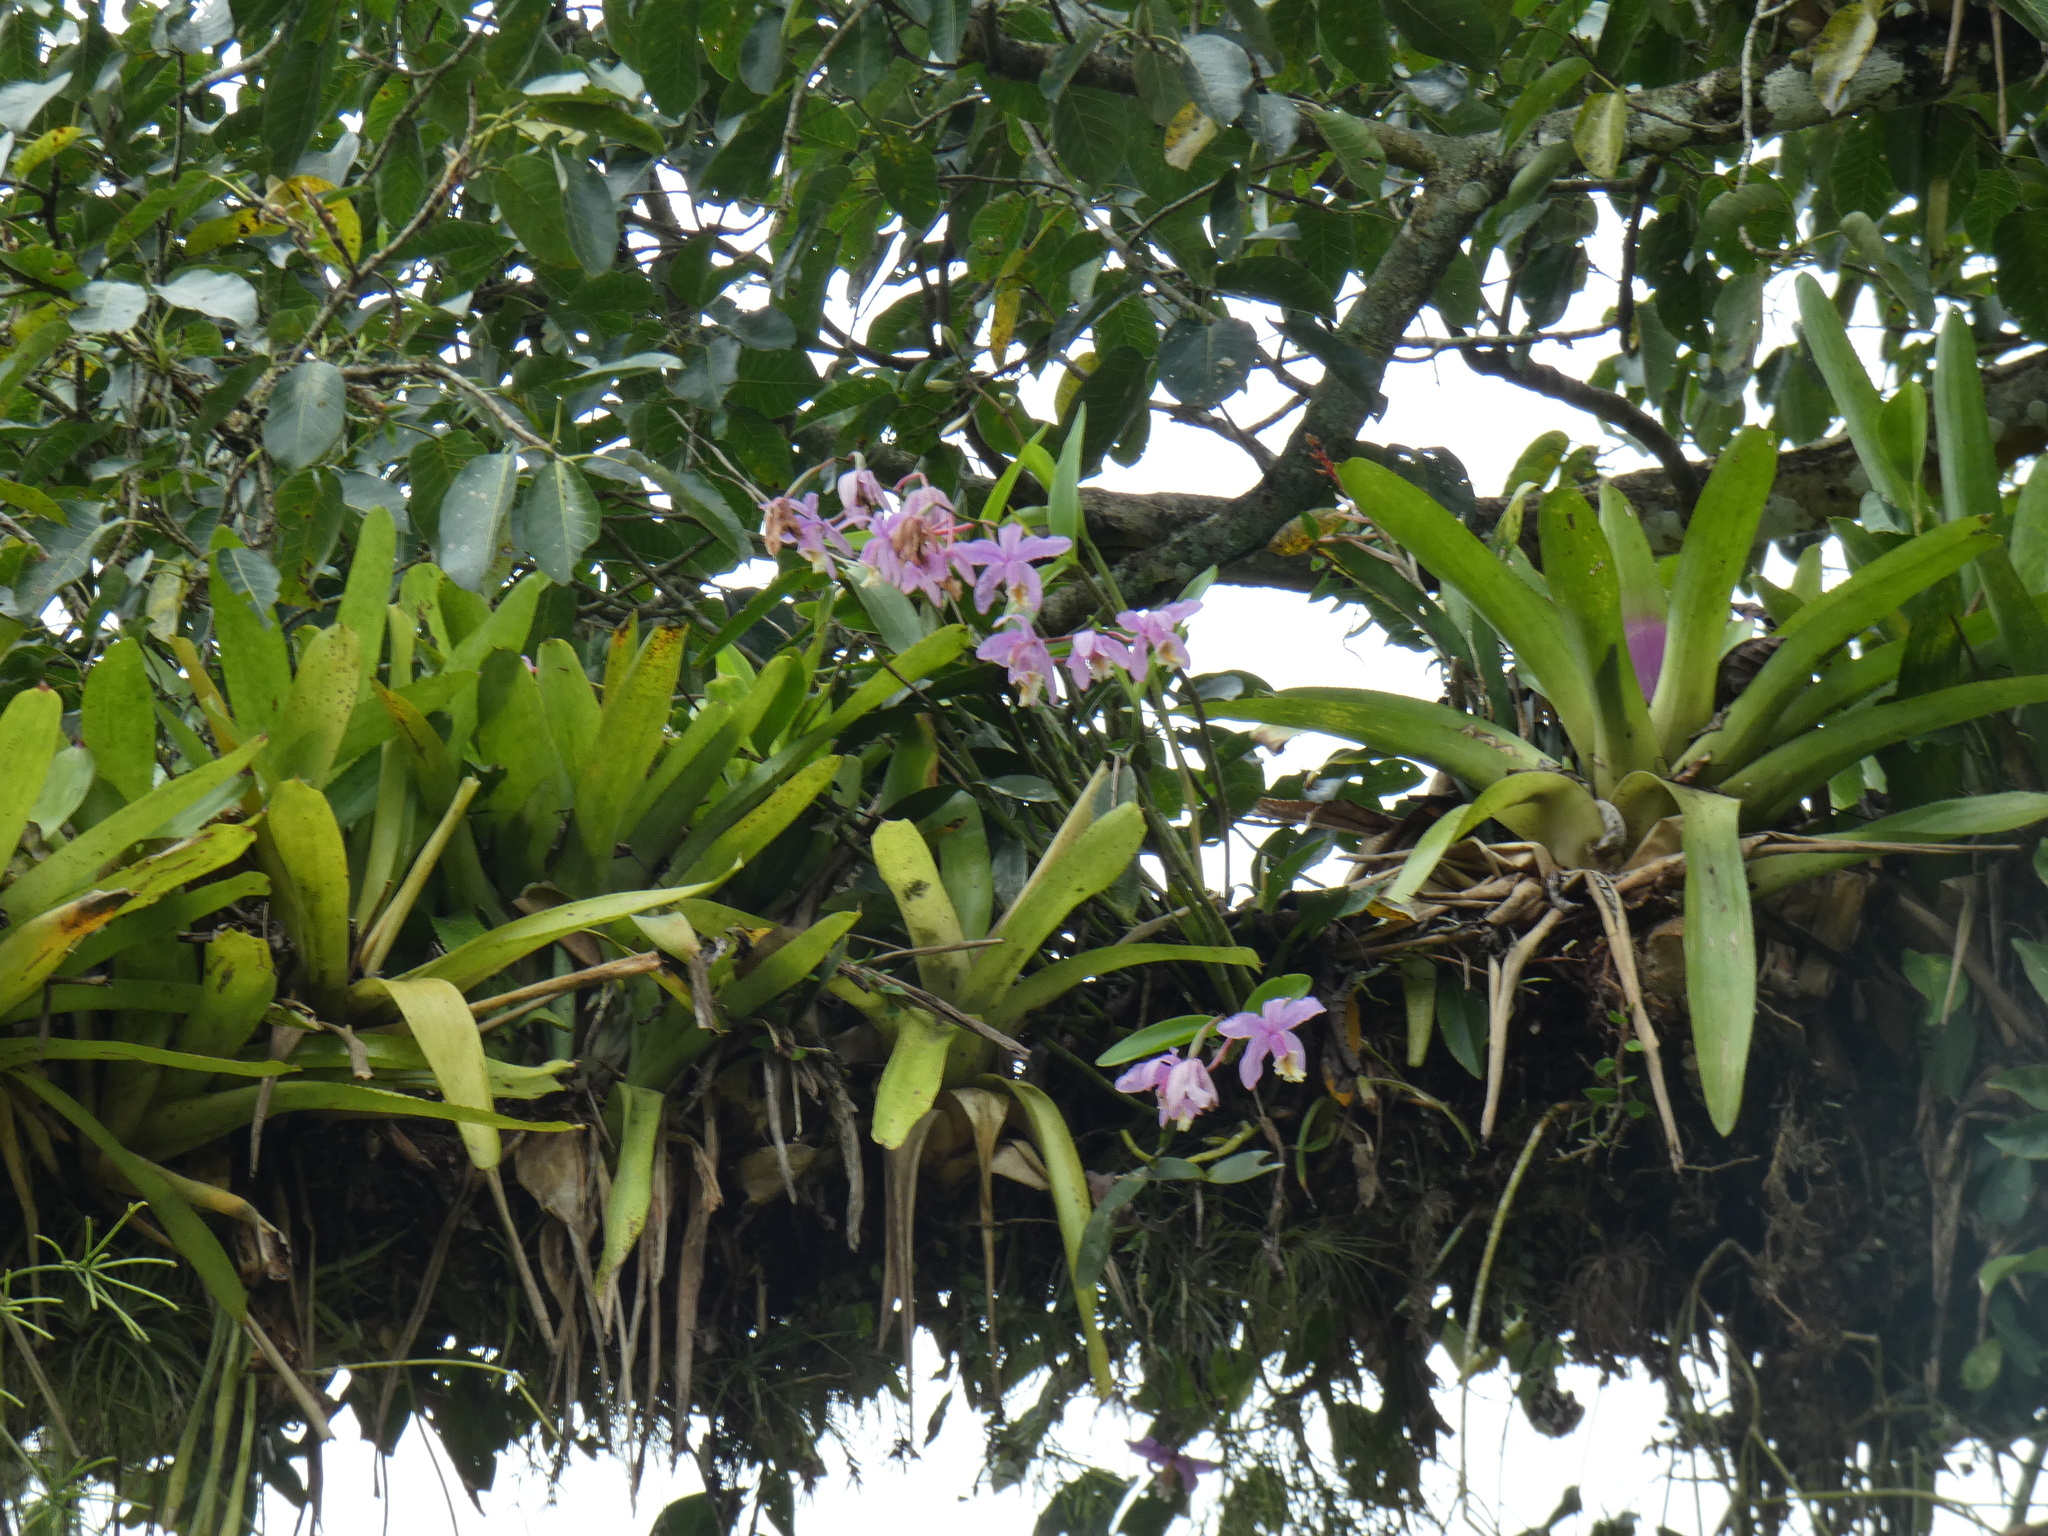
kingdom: Plantae
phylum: Tracheophyta
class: Liliopsida
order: Asparagales
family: Orchidaceae
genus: Cattleya
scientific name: Cattleya harrisoniana
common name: Harrison's cattleya
